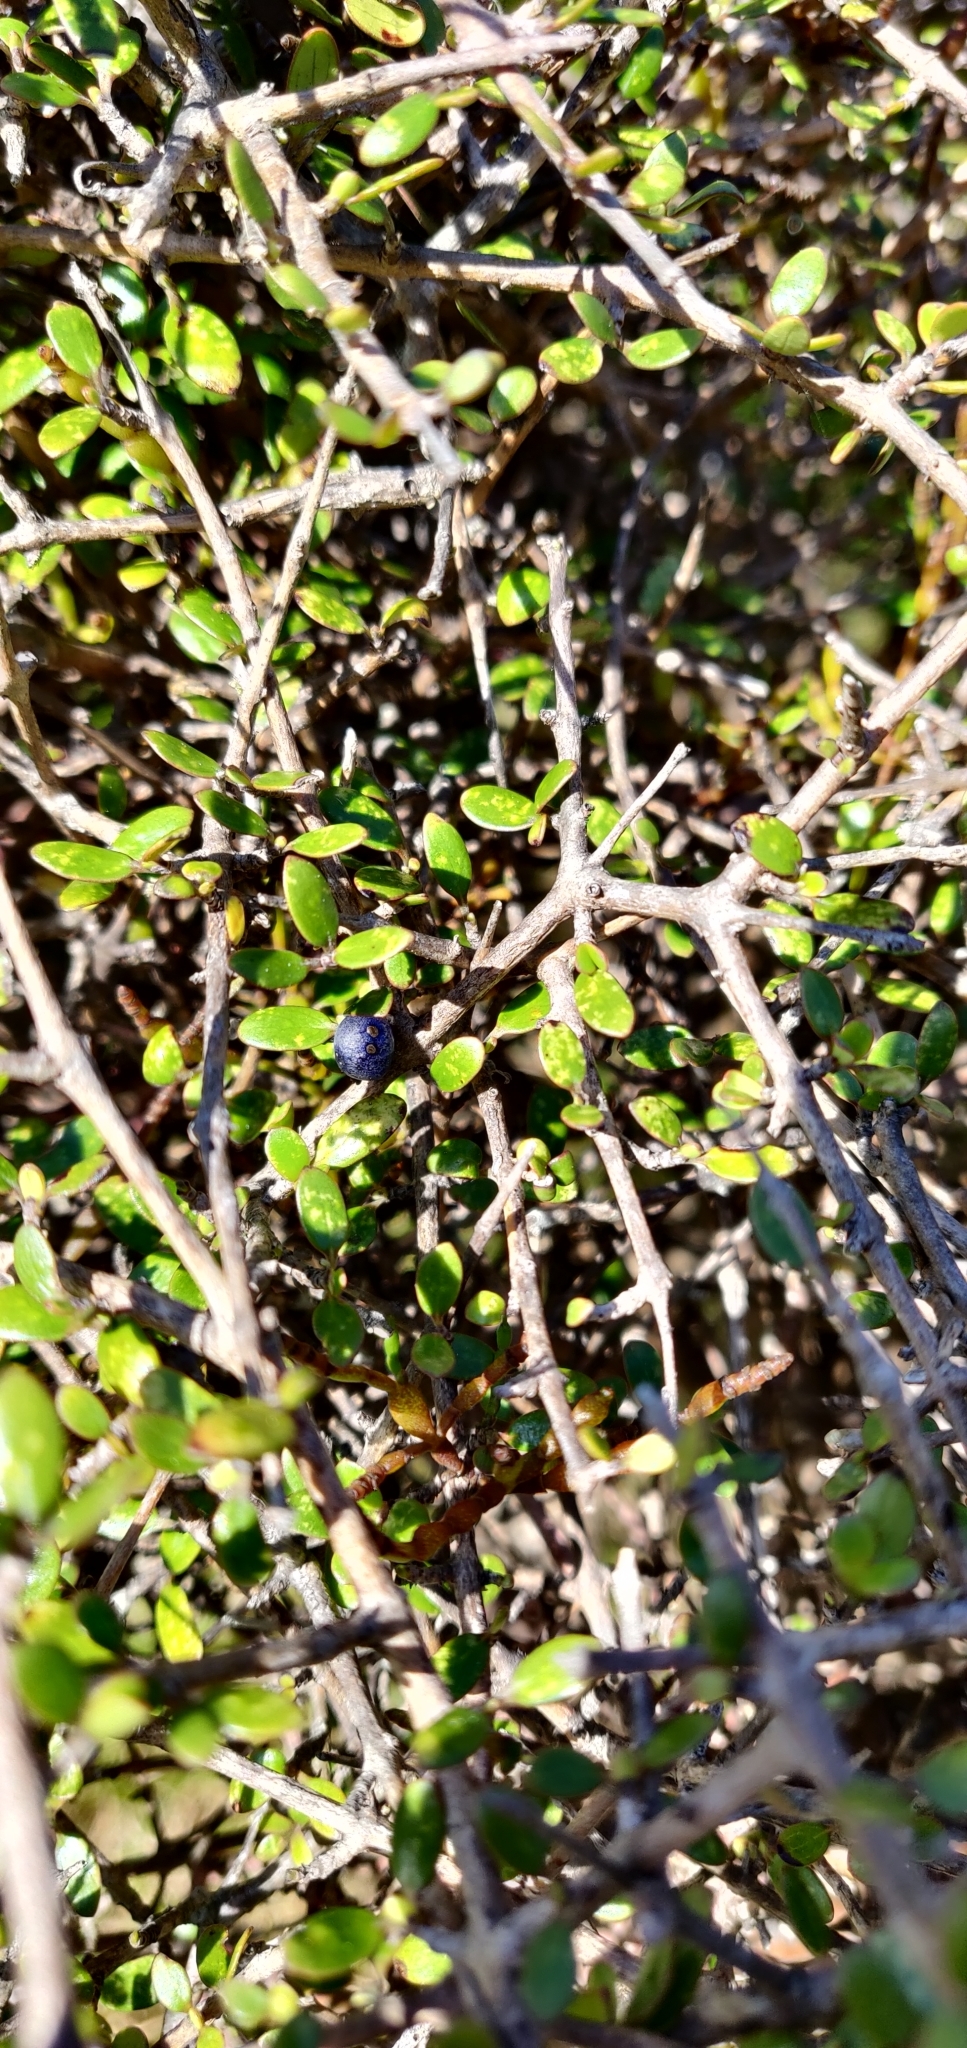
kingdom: Plantae
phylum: Tracheophyta
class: Magnoliopsida
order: Gentianales
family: Rubiaceae
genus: Coprosma
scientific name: Coprosma propinqua
